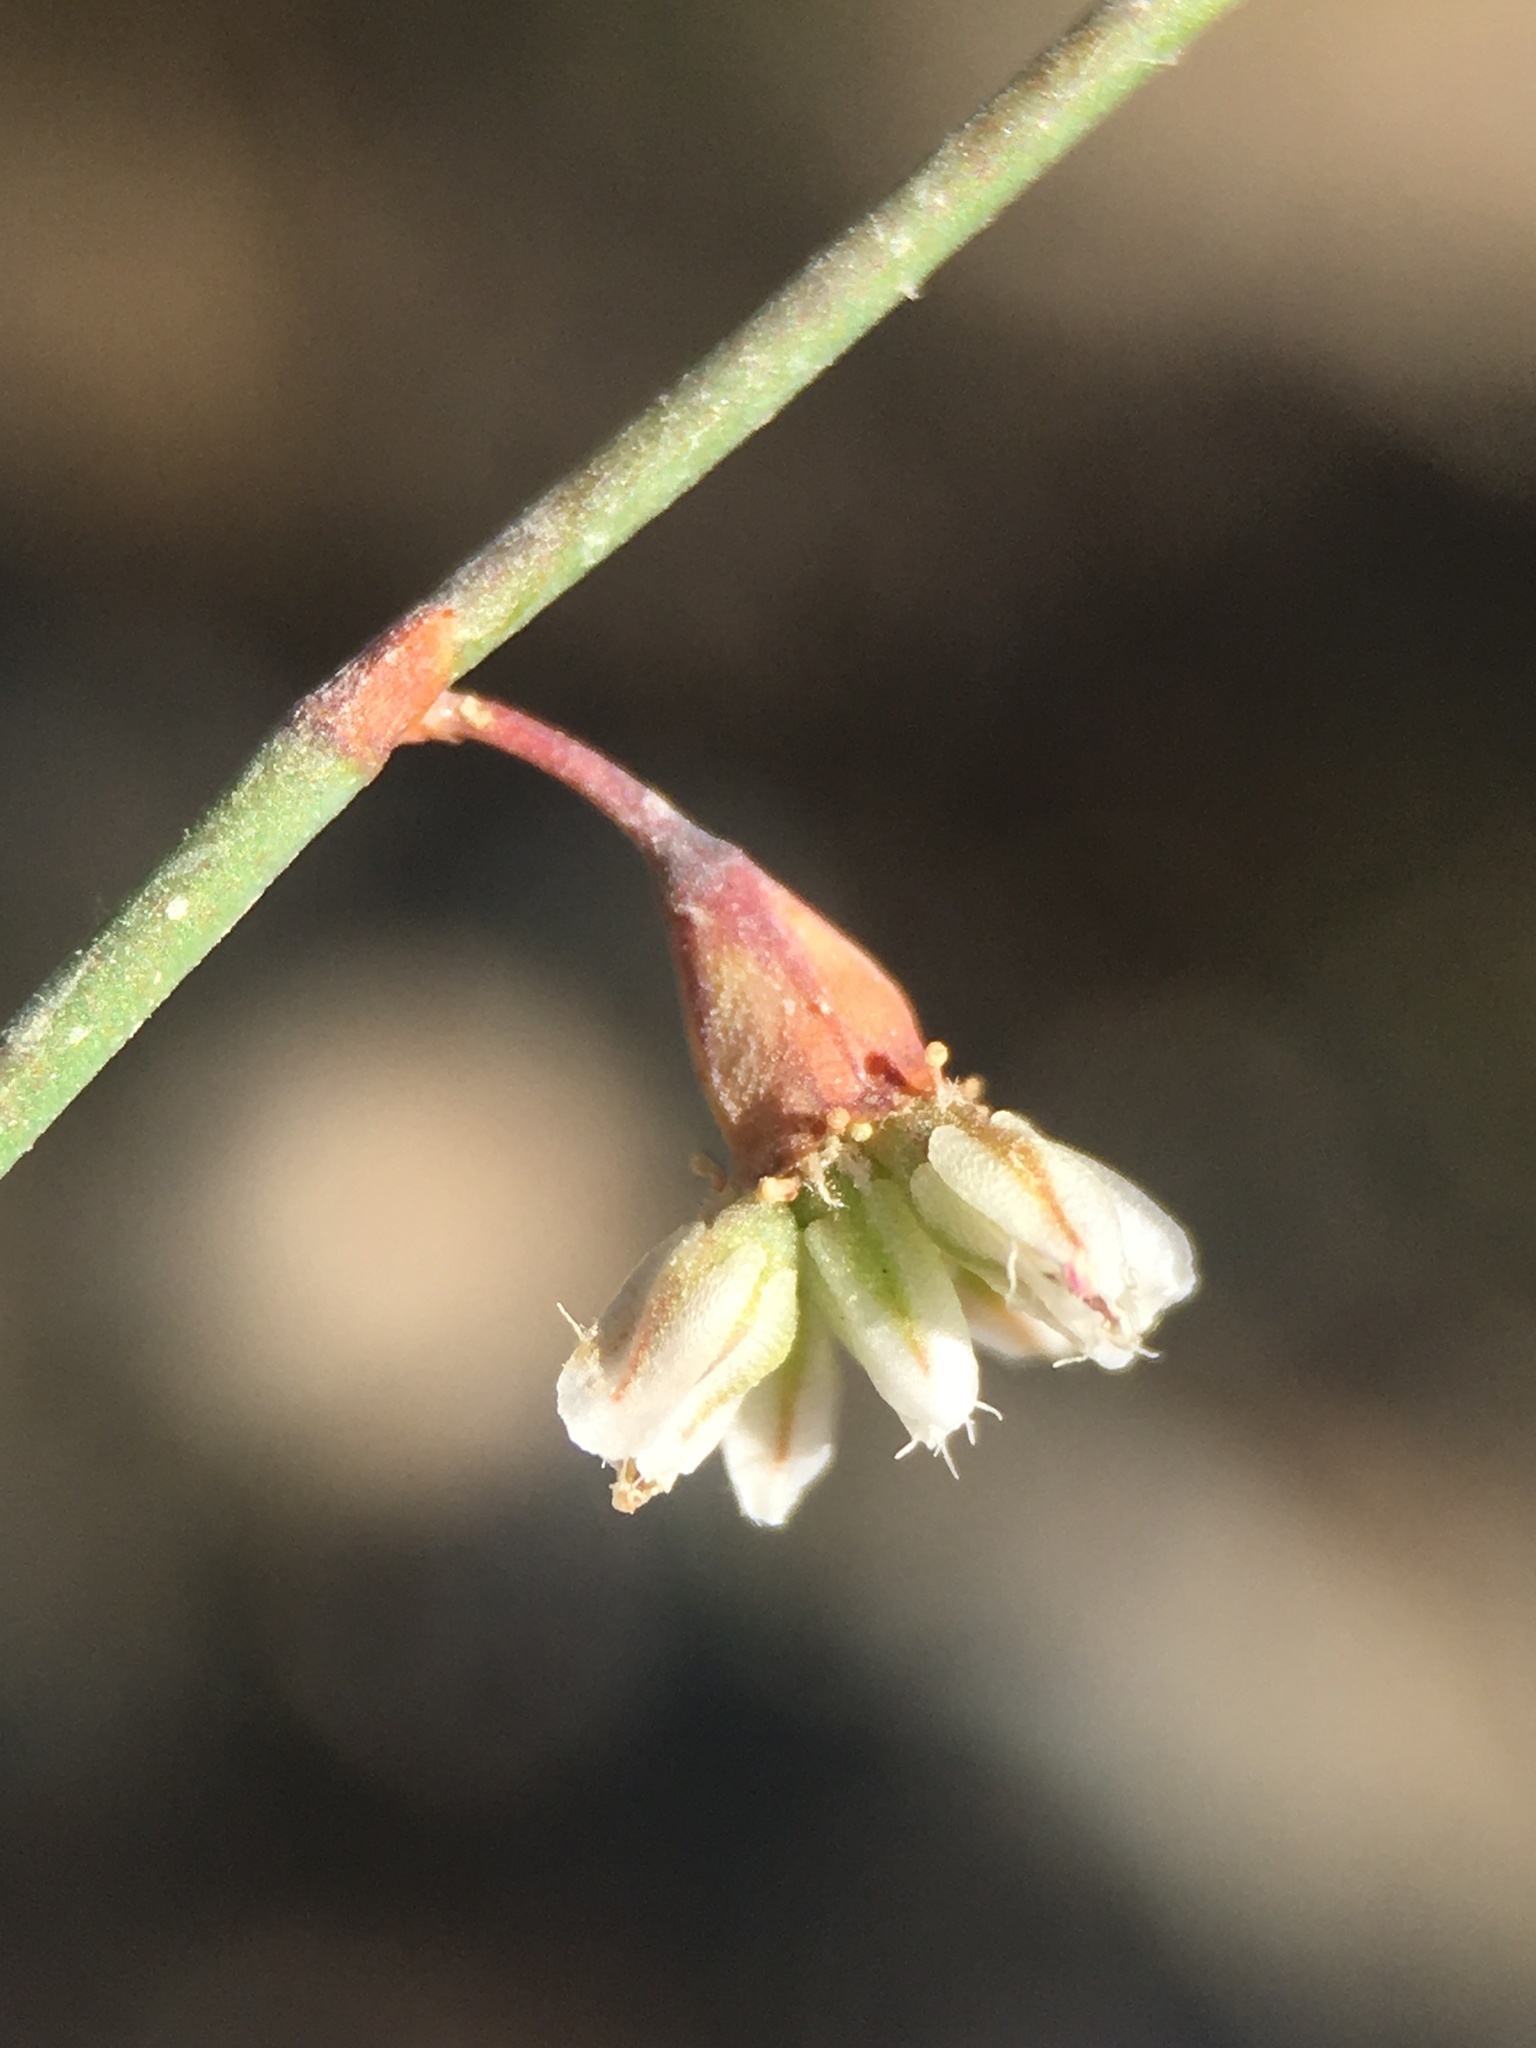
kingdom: Plantae
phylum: Tracheophyta
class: Magnoliopsida
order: Caryophyllales
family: Polygonaceae
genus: Eriogonum
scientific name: Eriogonum deflexum
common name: Skeleton-weed
